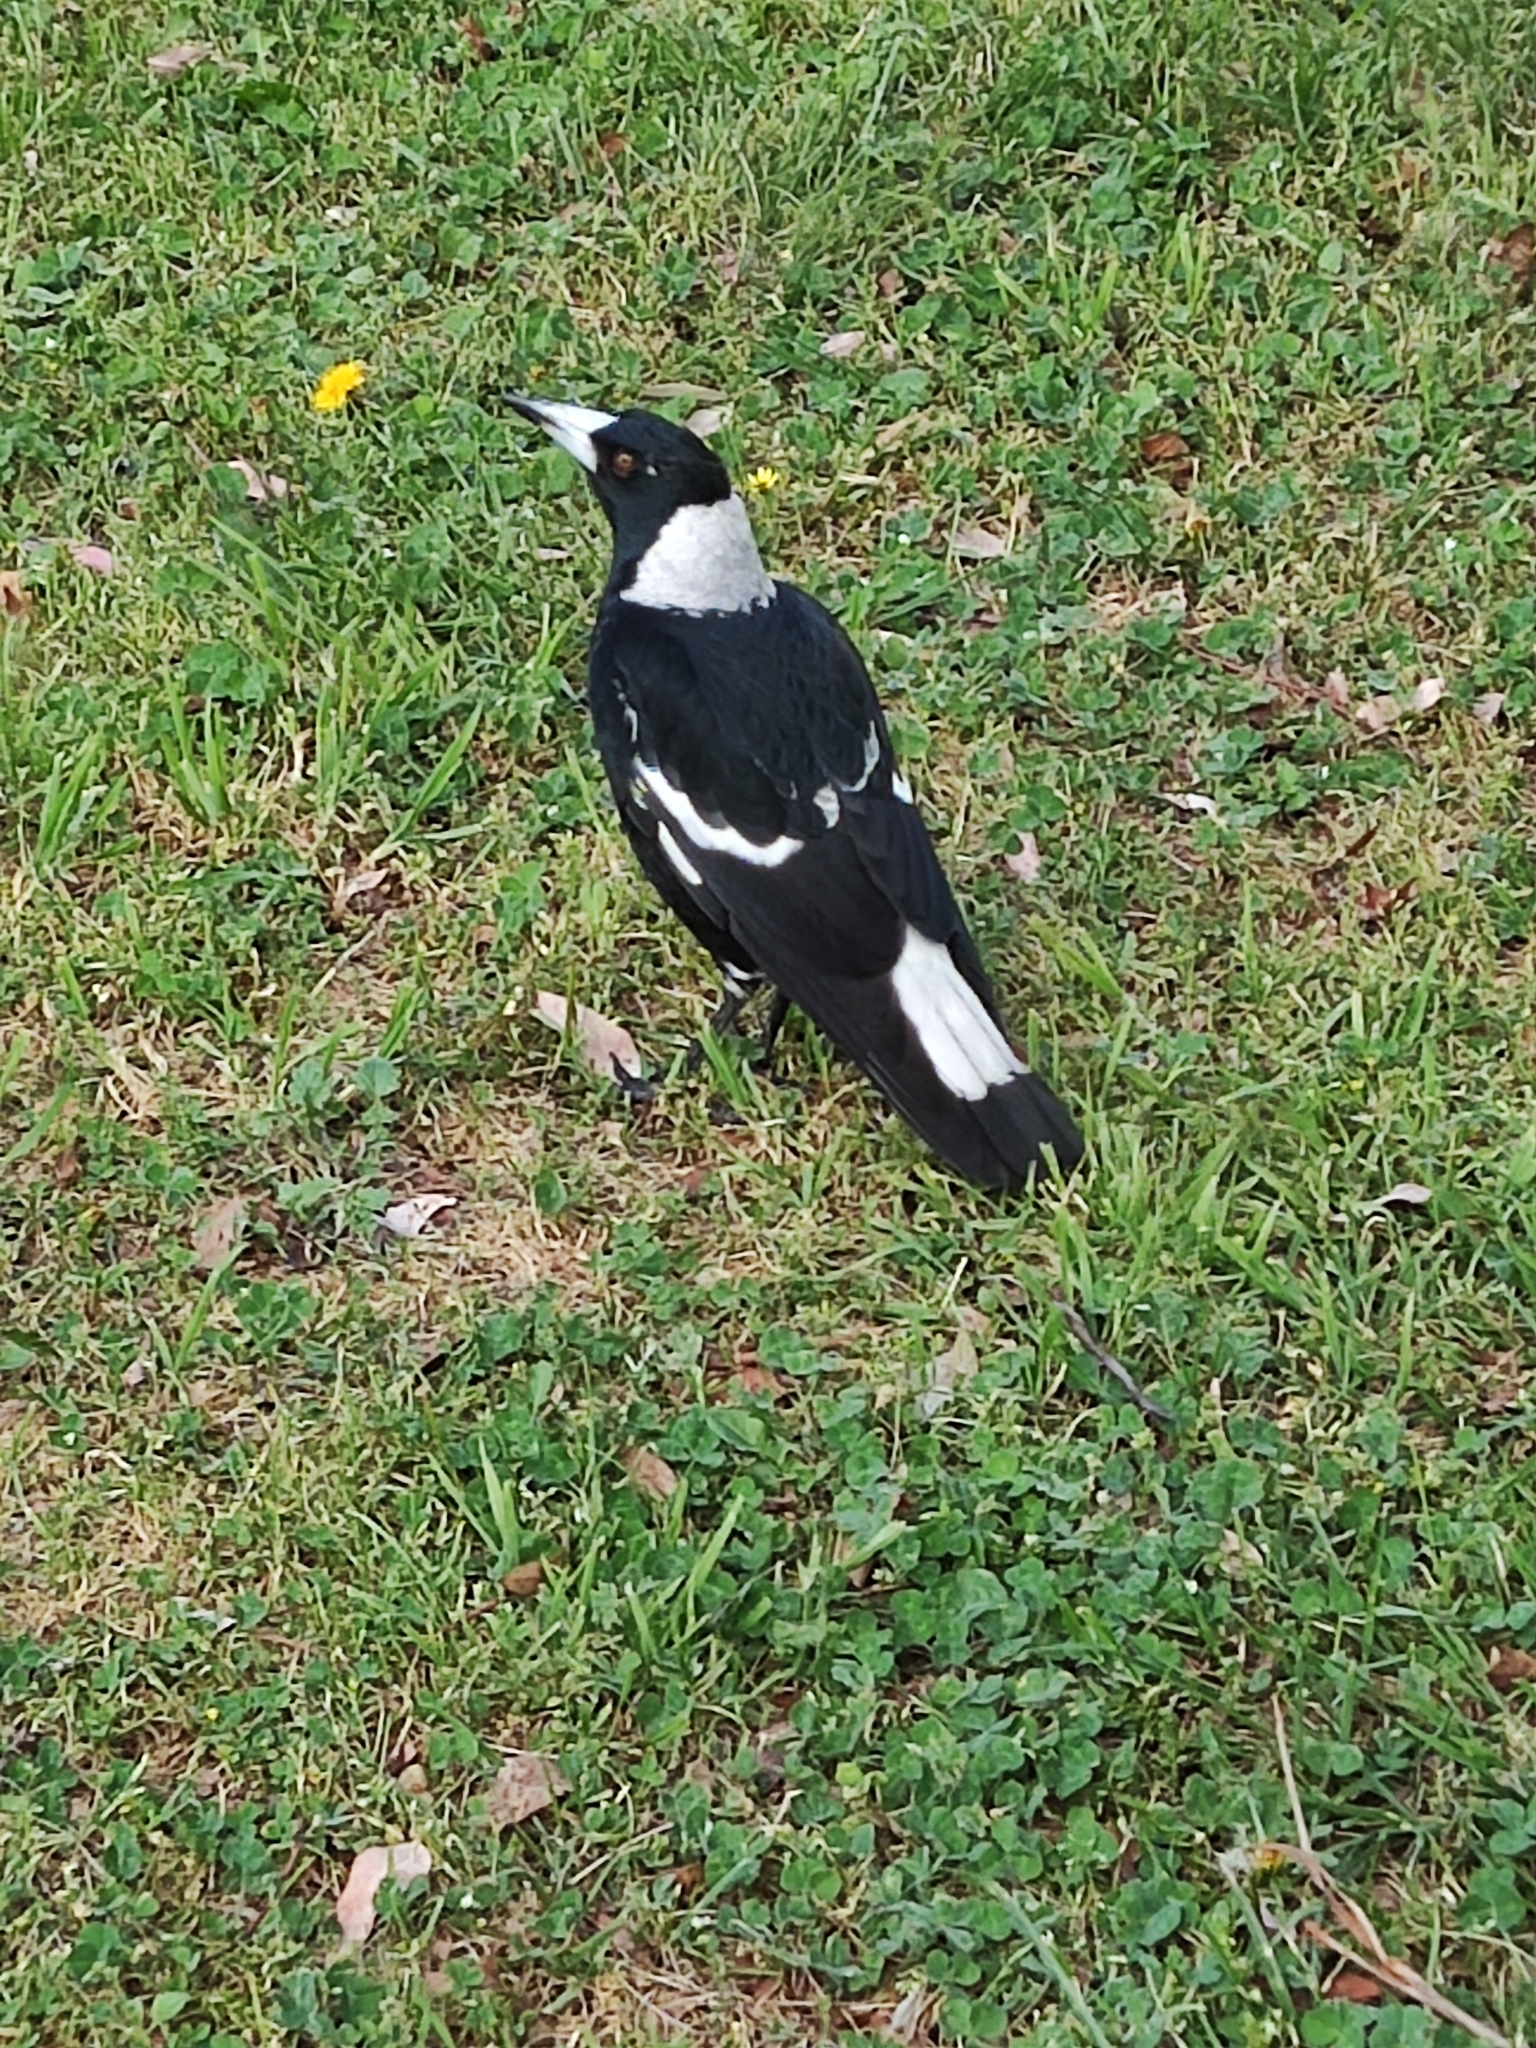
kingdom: Animalia
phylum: Chordata
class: Aves
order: Passeriformes
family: Cracticidae
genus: Gymnorhina
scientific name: Gymnorhina tibicen
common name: Australian magpie
